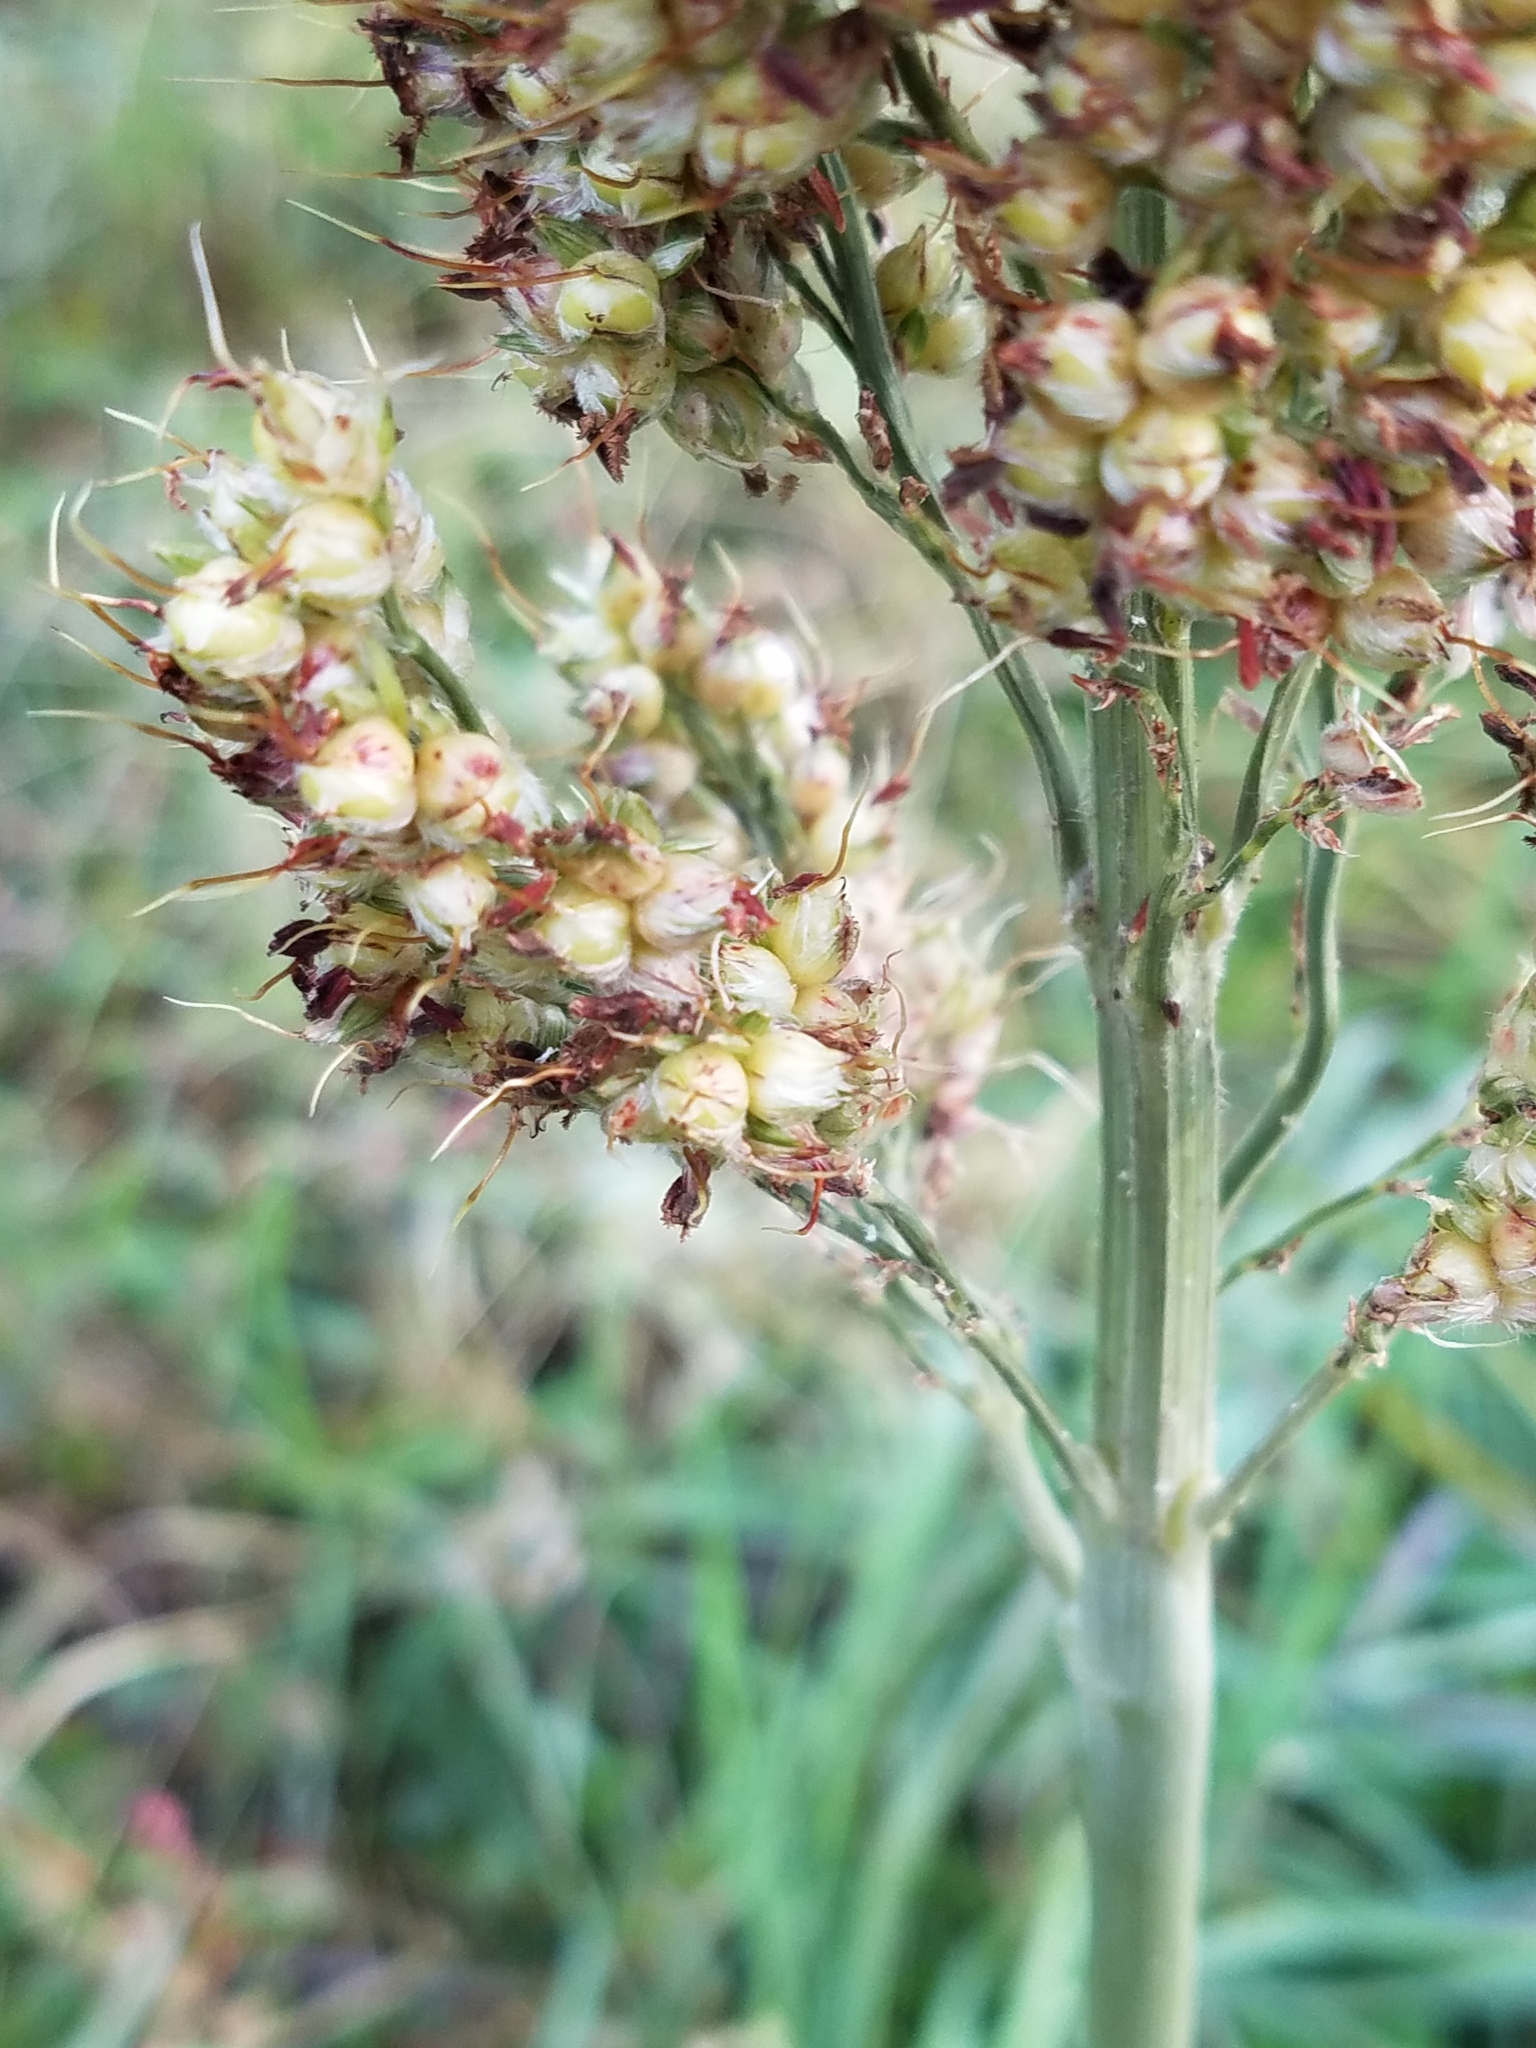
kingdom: Plantae
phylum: Tracheophyta
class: Liliopsida
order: Poales
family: Poaceae
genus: Sorghum
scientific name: Sorghum bicolor
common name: Sorghum
